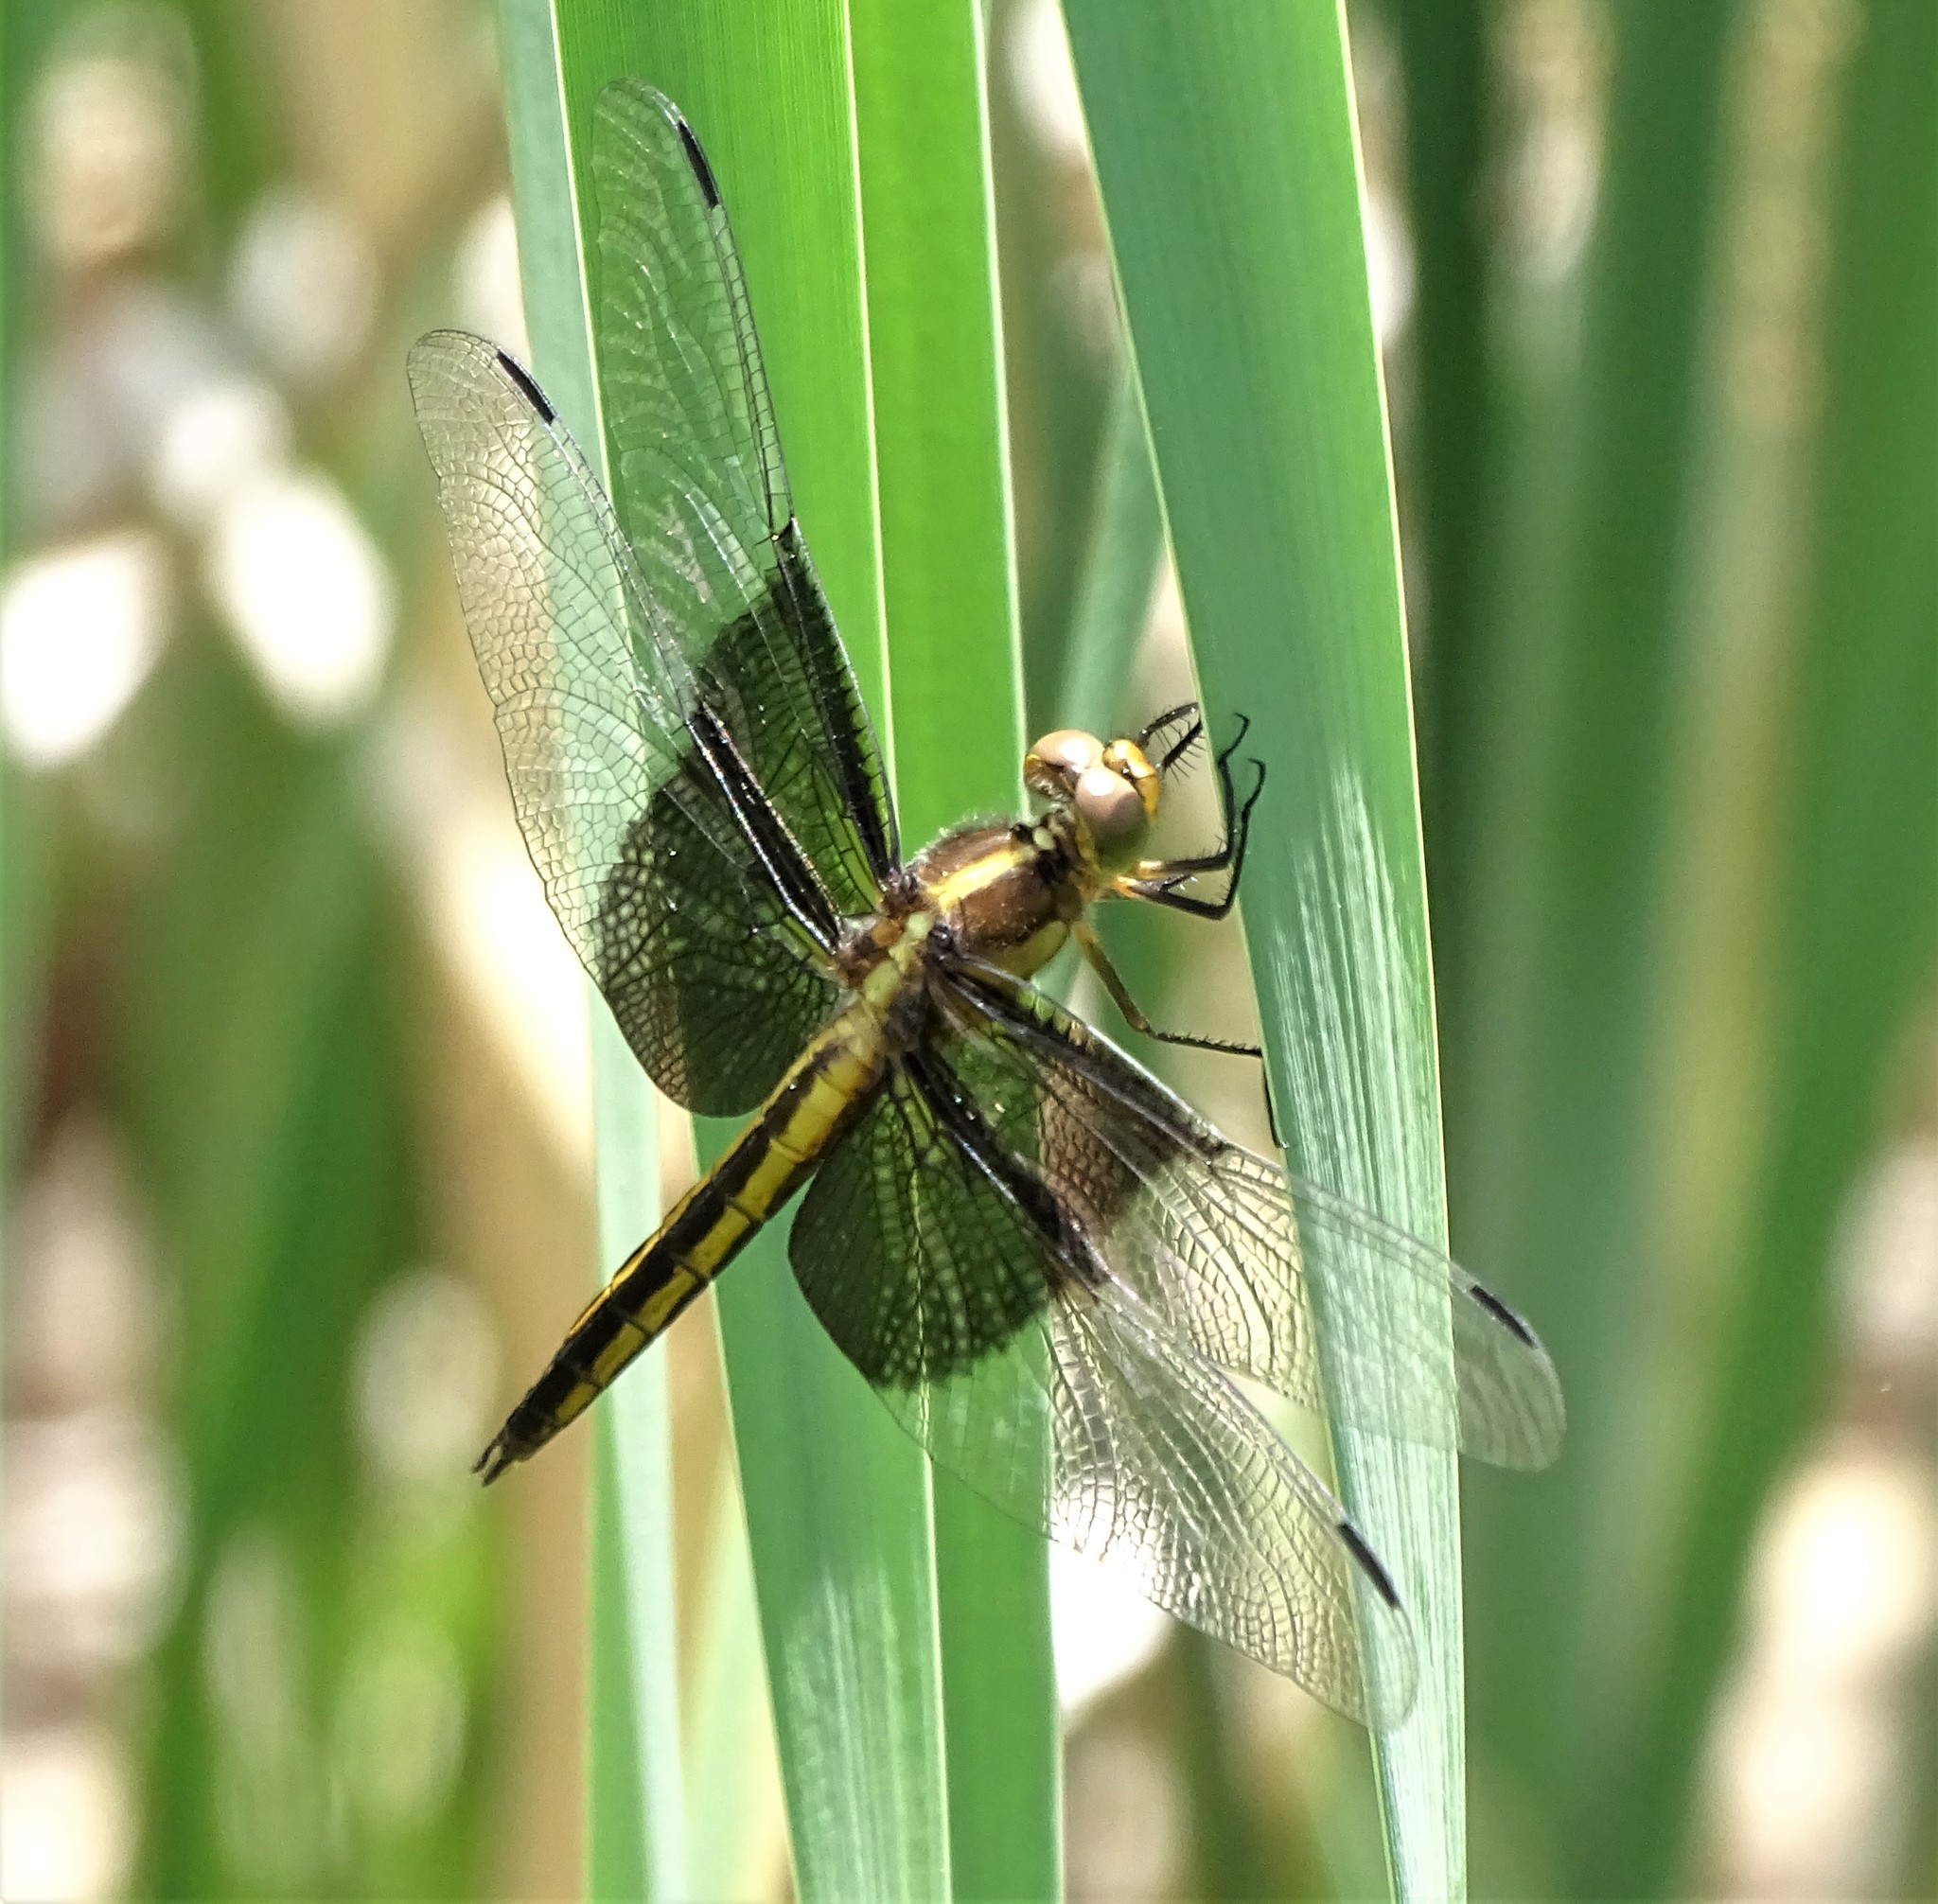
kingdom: Animalia
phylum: Arthropoda
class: Insecta
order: Odonata
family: Libellulidae
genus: Libellula
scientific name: Libellula luctuosa
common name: Widow skimmer
